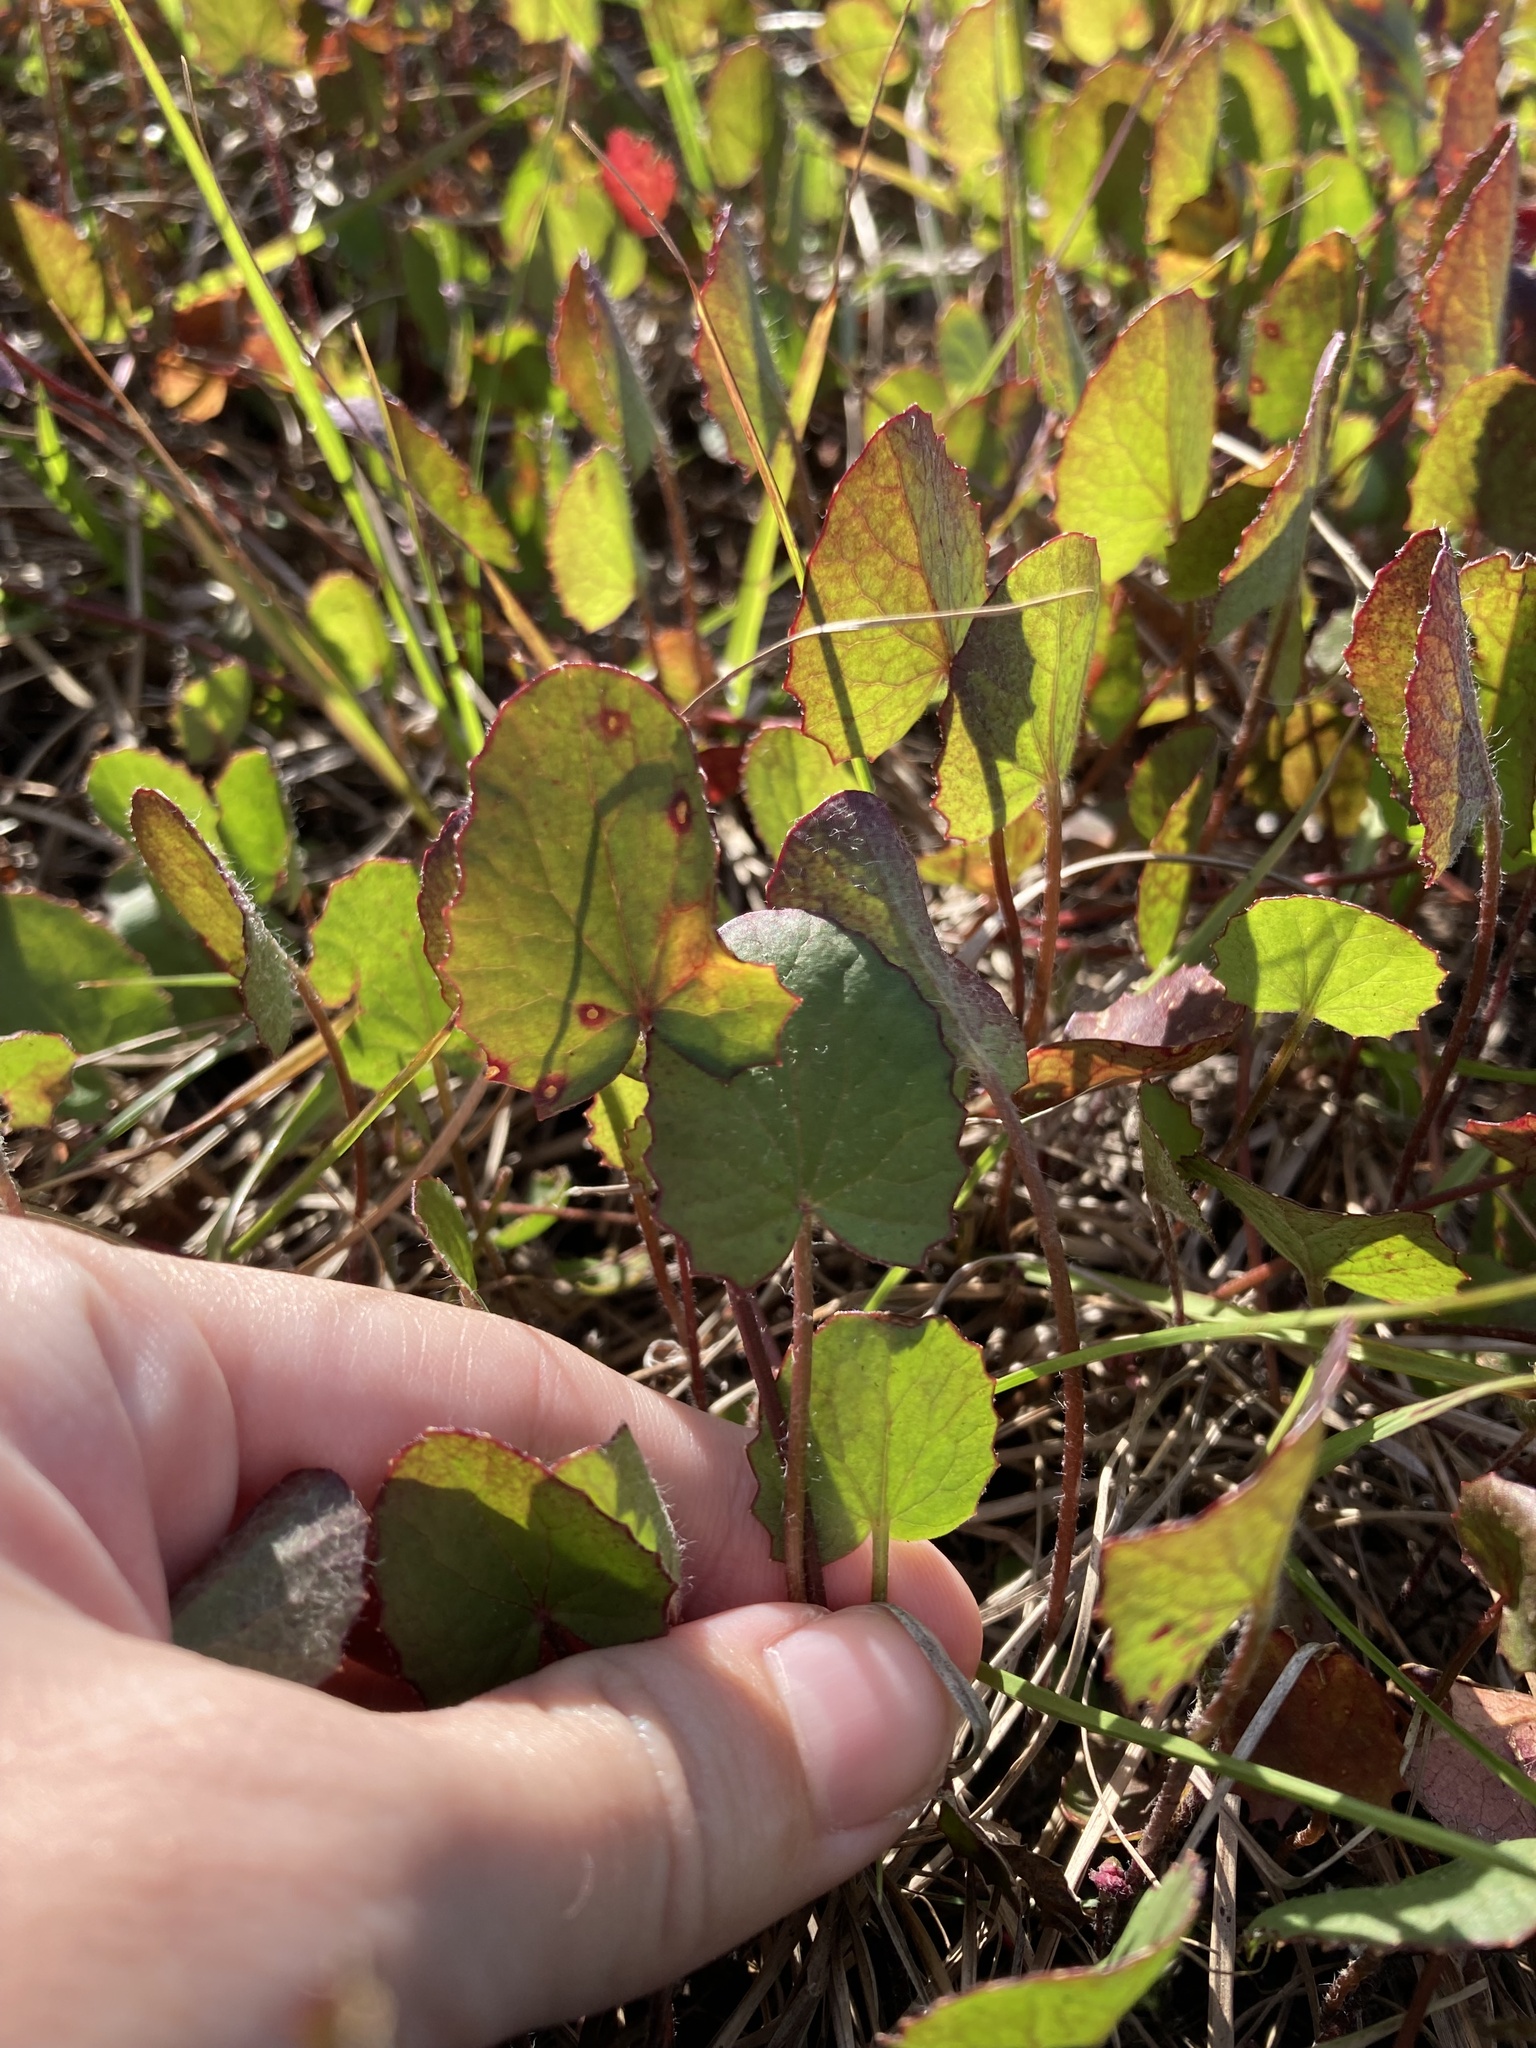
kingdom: Plantae
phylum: Tracheophyta
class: Magnoliopsida
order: Apiales
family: Apiaceae
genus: Centella
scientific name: Centella erecta
